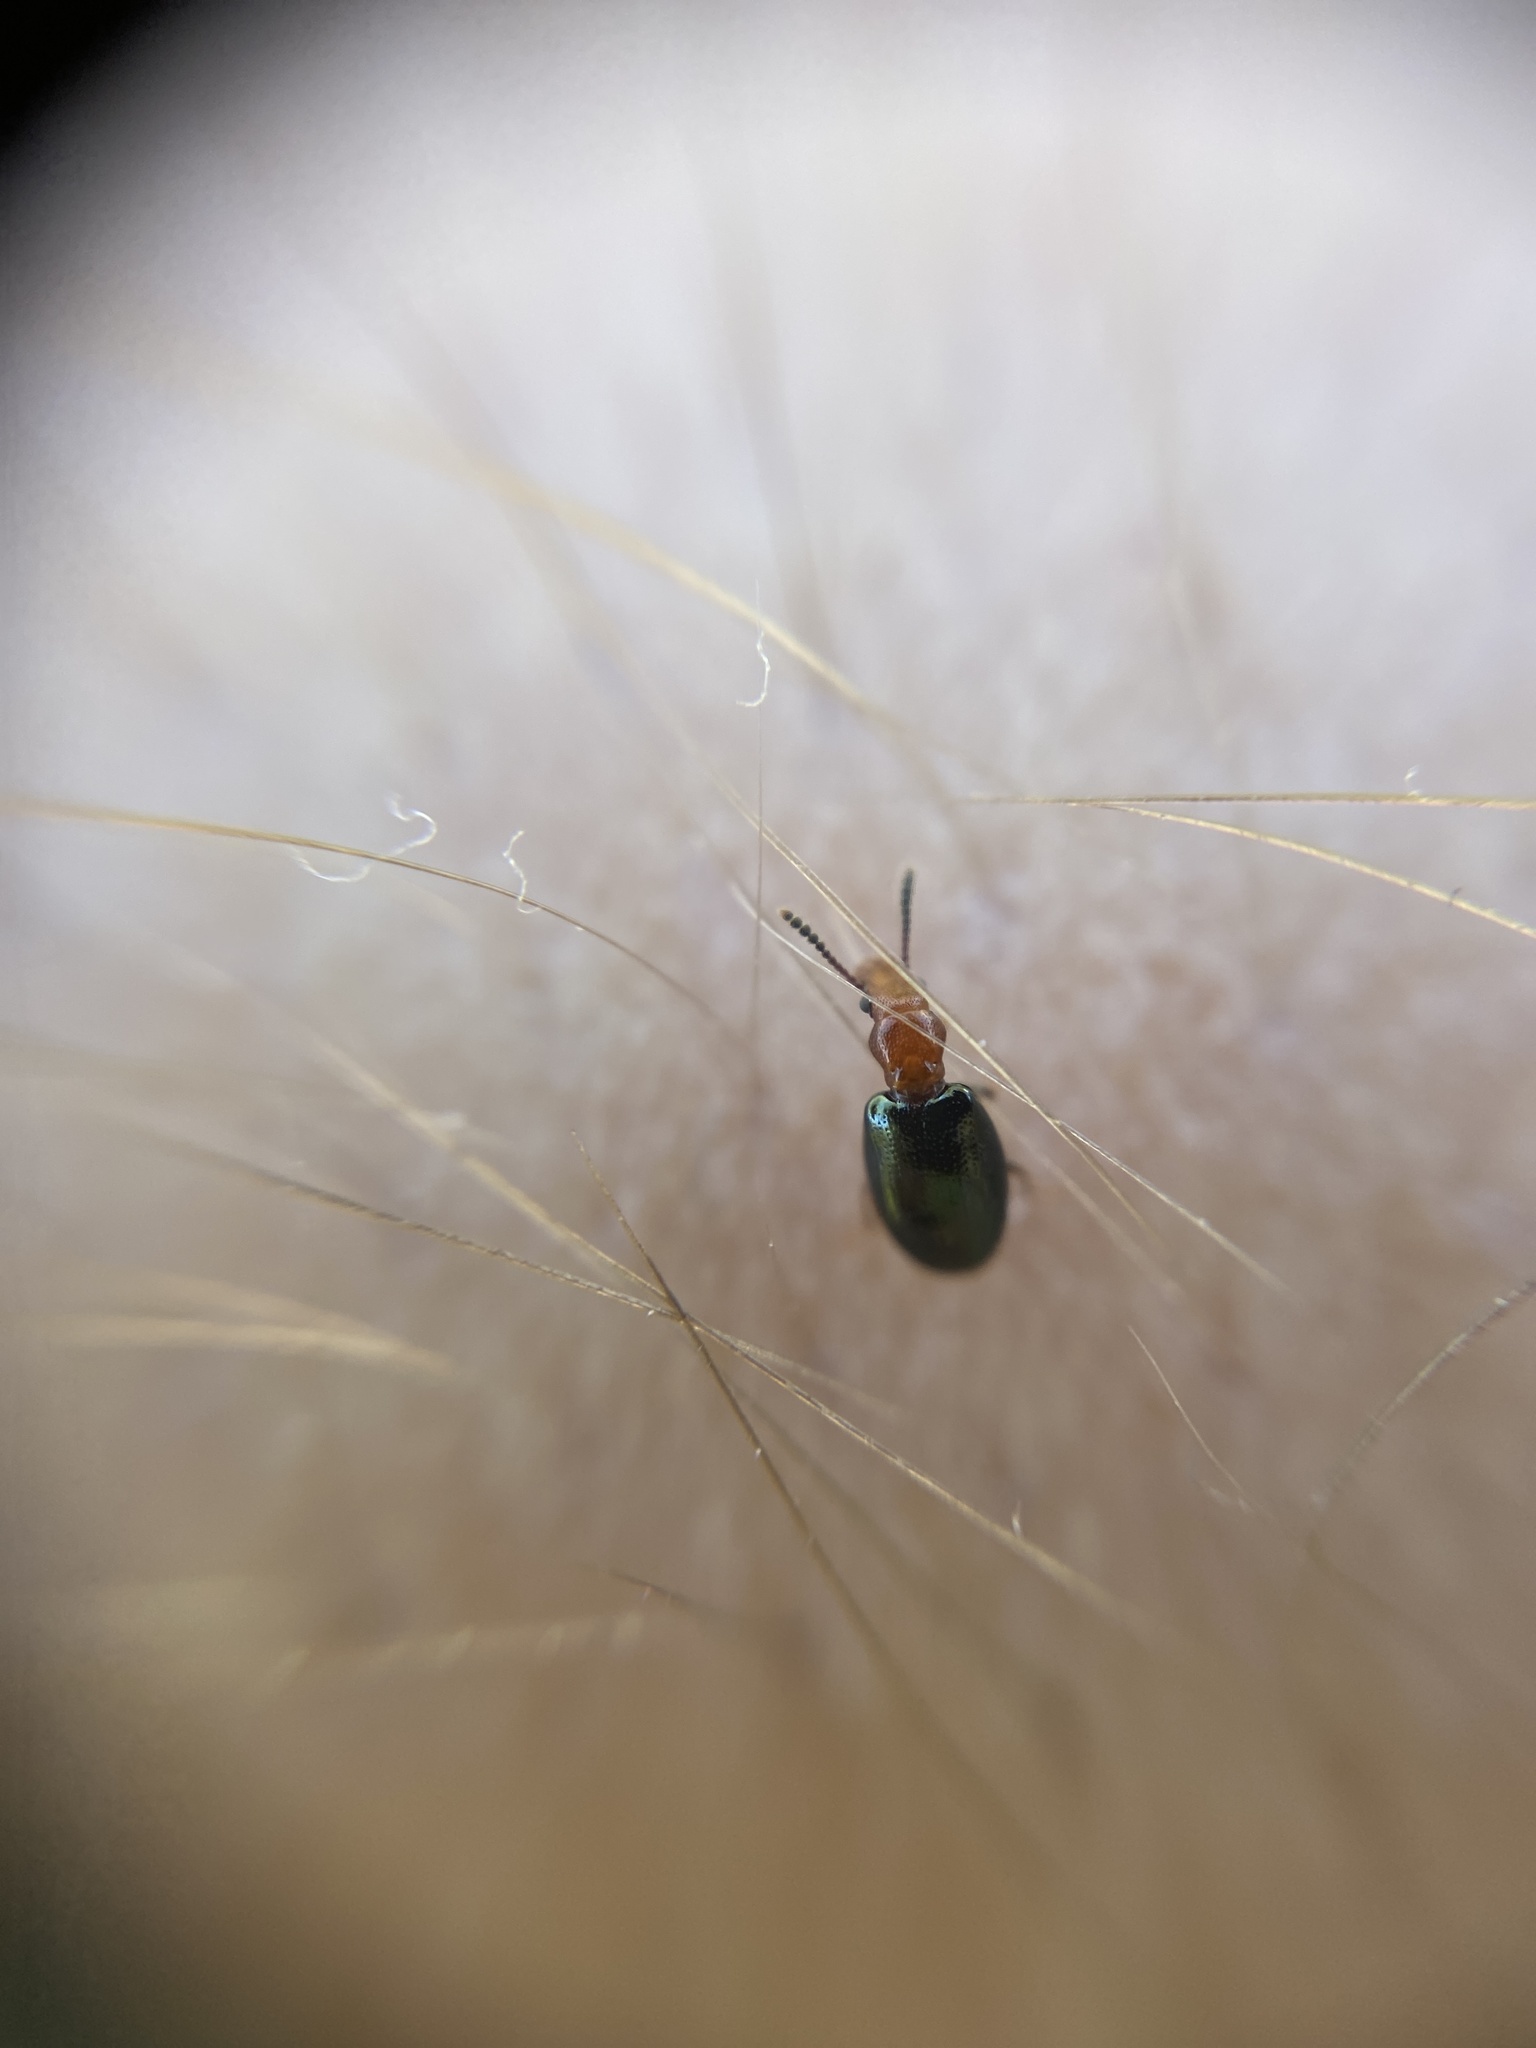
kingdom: Animalia
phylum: Arthropoda
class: Insecta
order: Coleoptera
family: Salpingidae
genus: Vincenzellus
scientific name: Vincenzellus ruficollis
